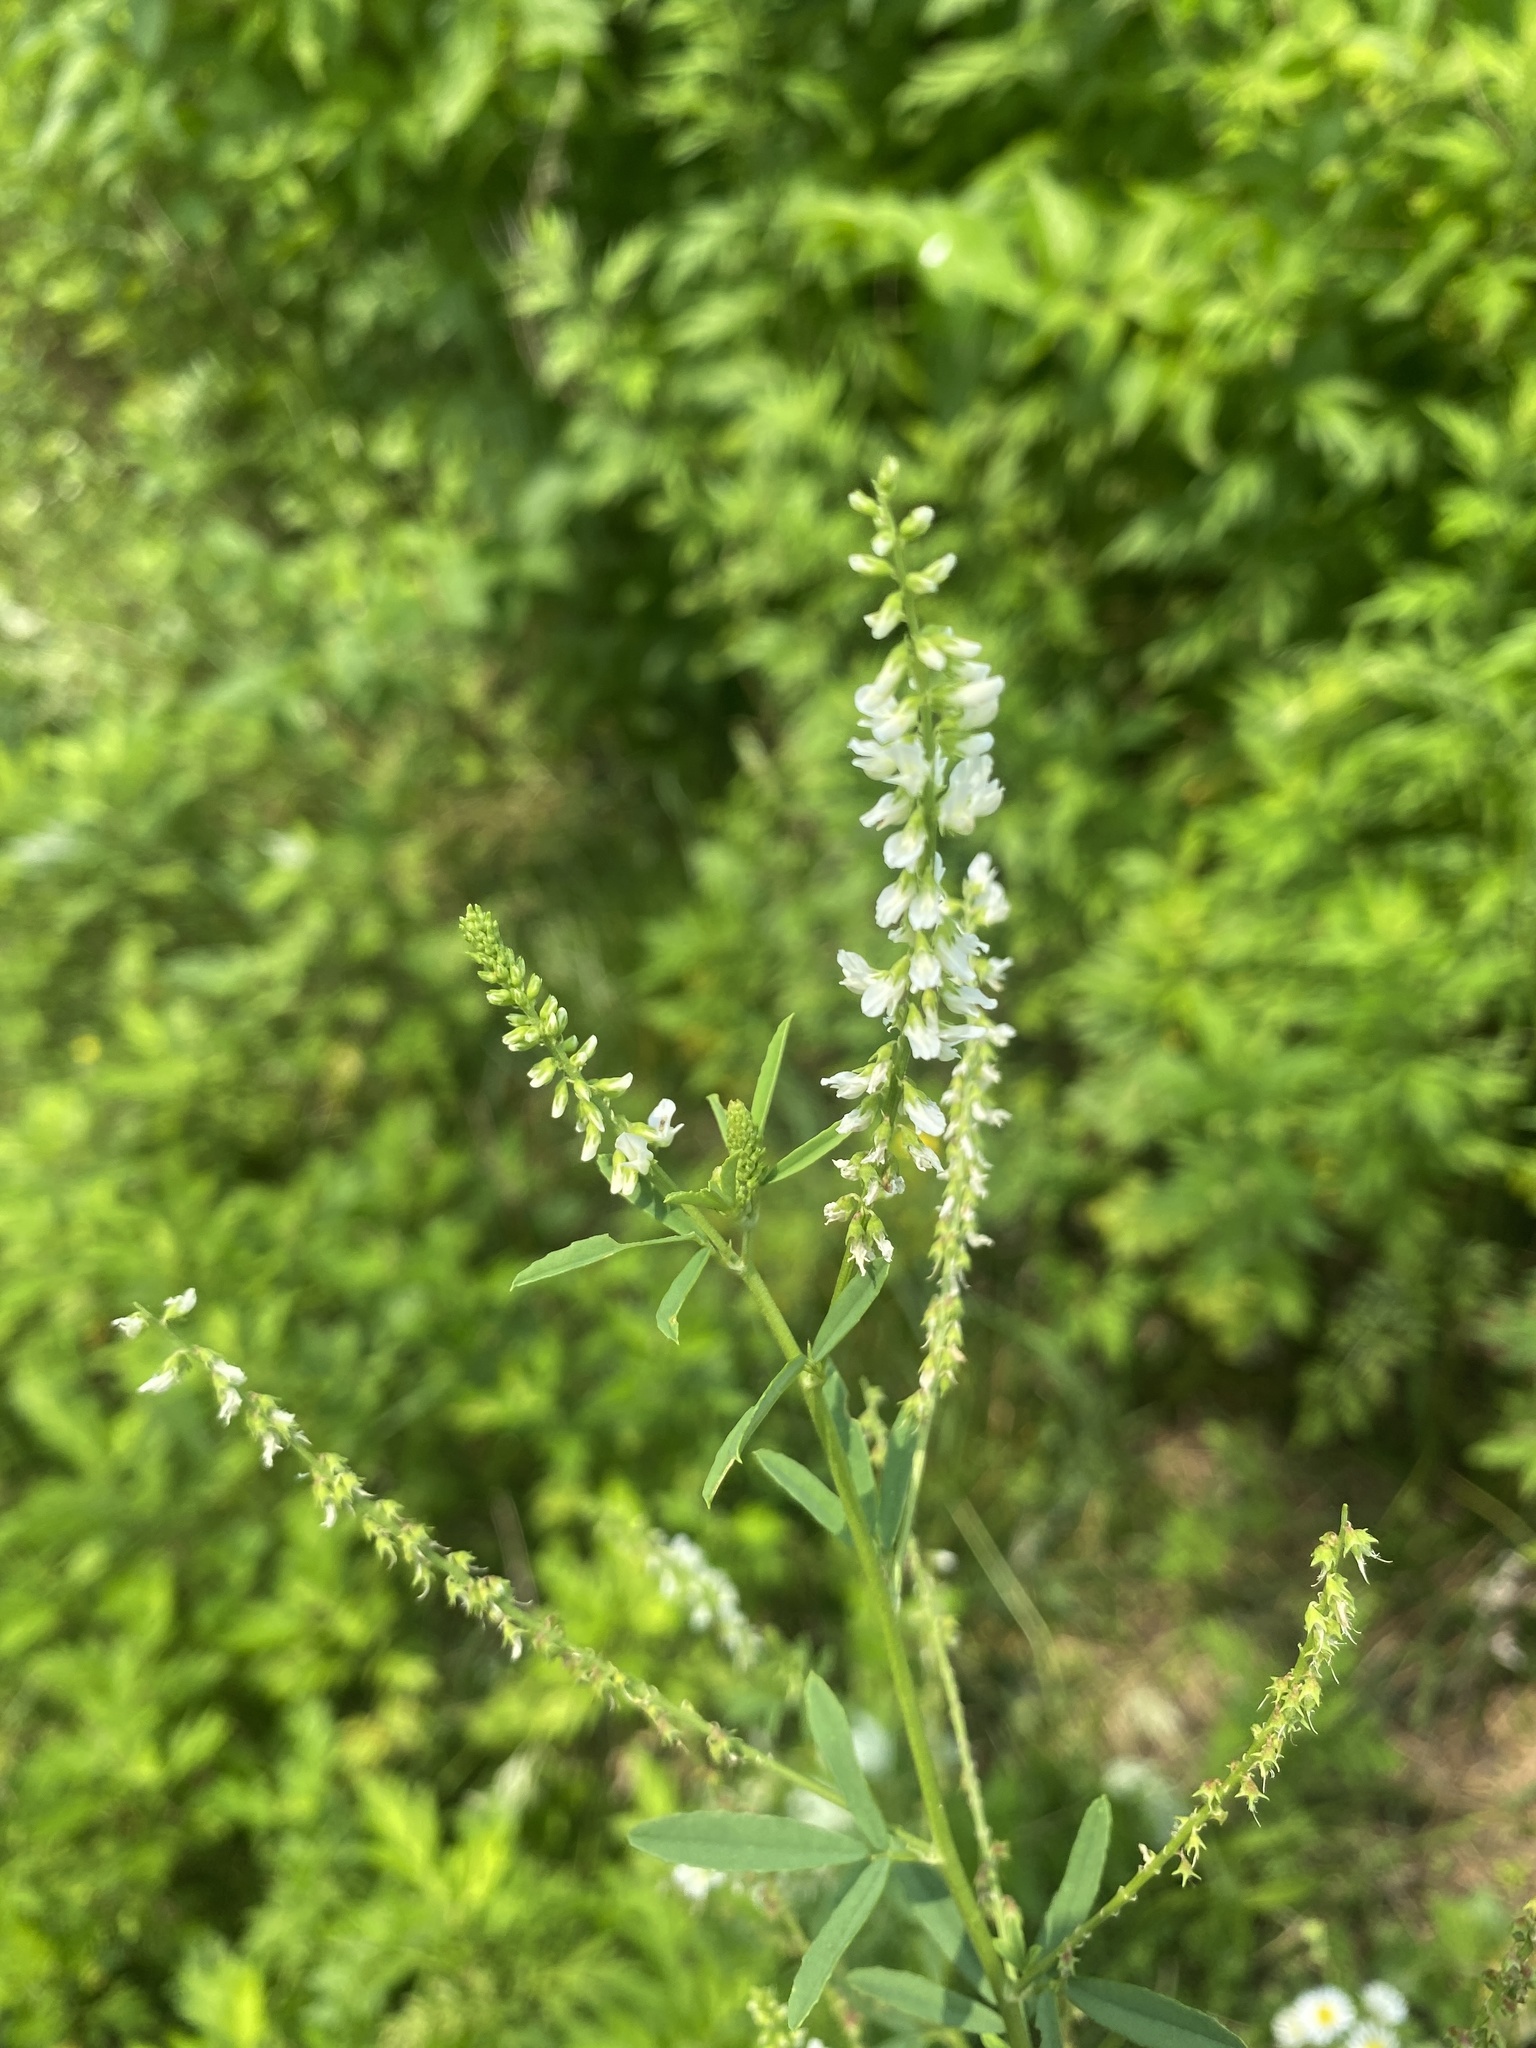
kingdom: Plantae
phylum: Tracheophyta
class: Magnoliopsida
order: Fabales
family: Fabaceae
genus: Melilotus
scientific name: Melilotus albus
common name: White melilot
